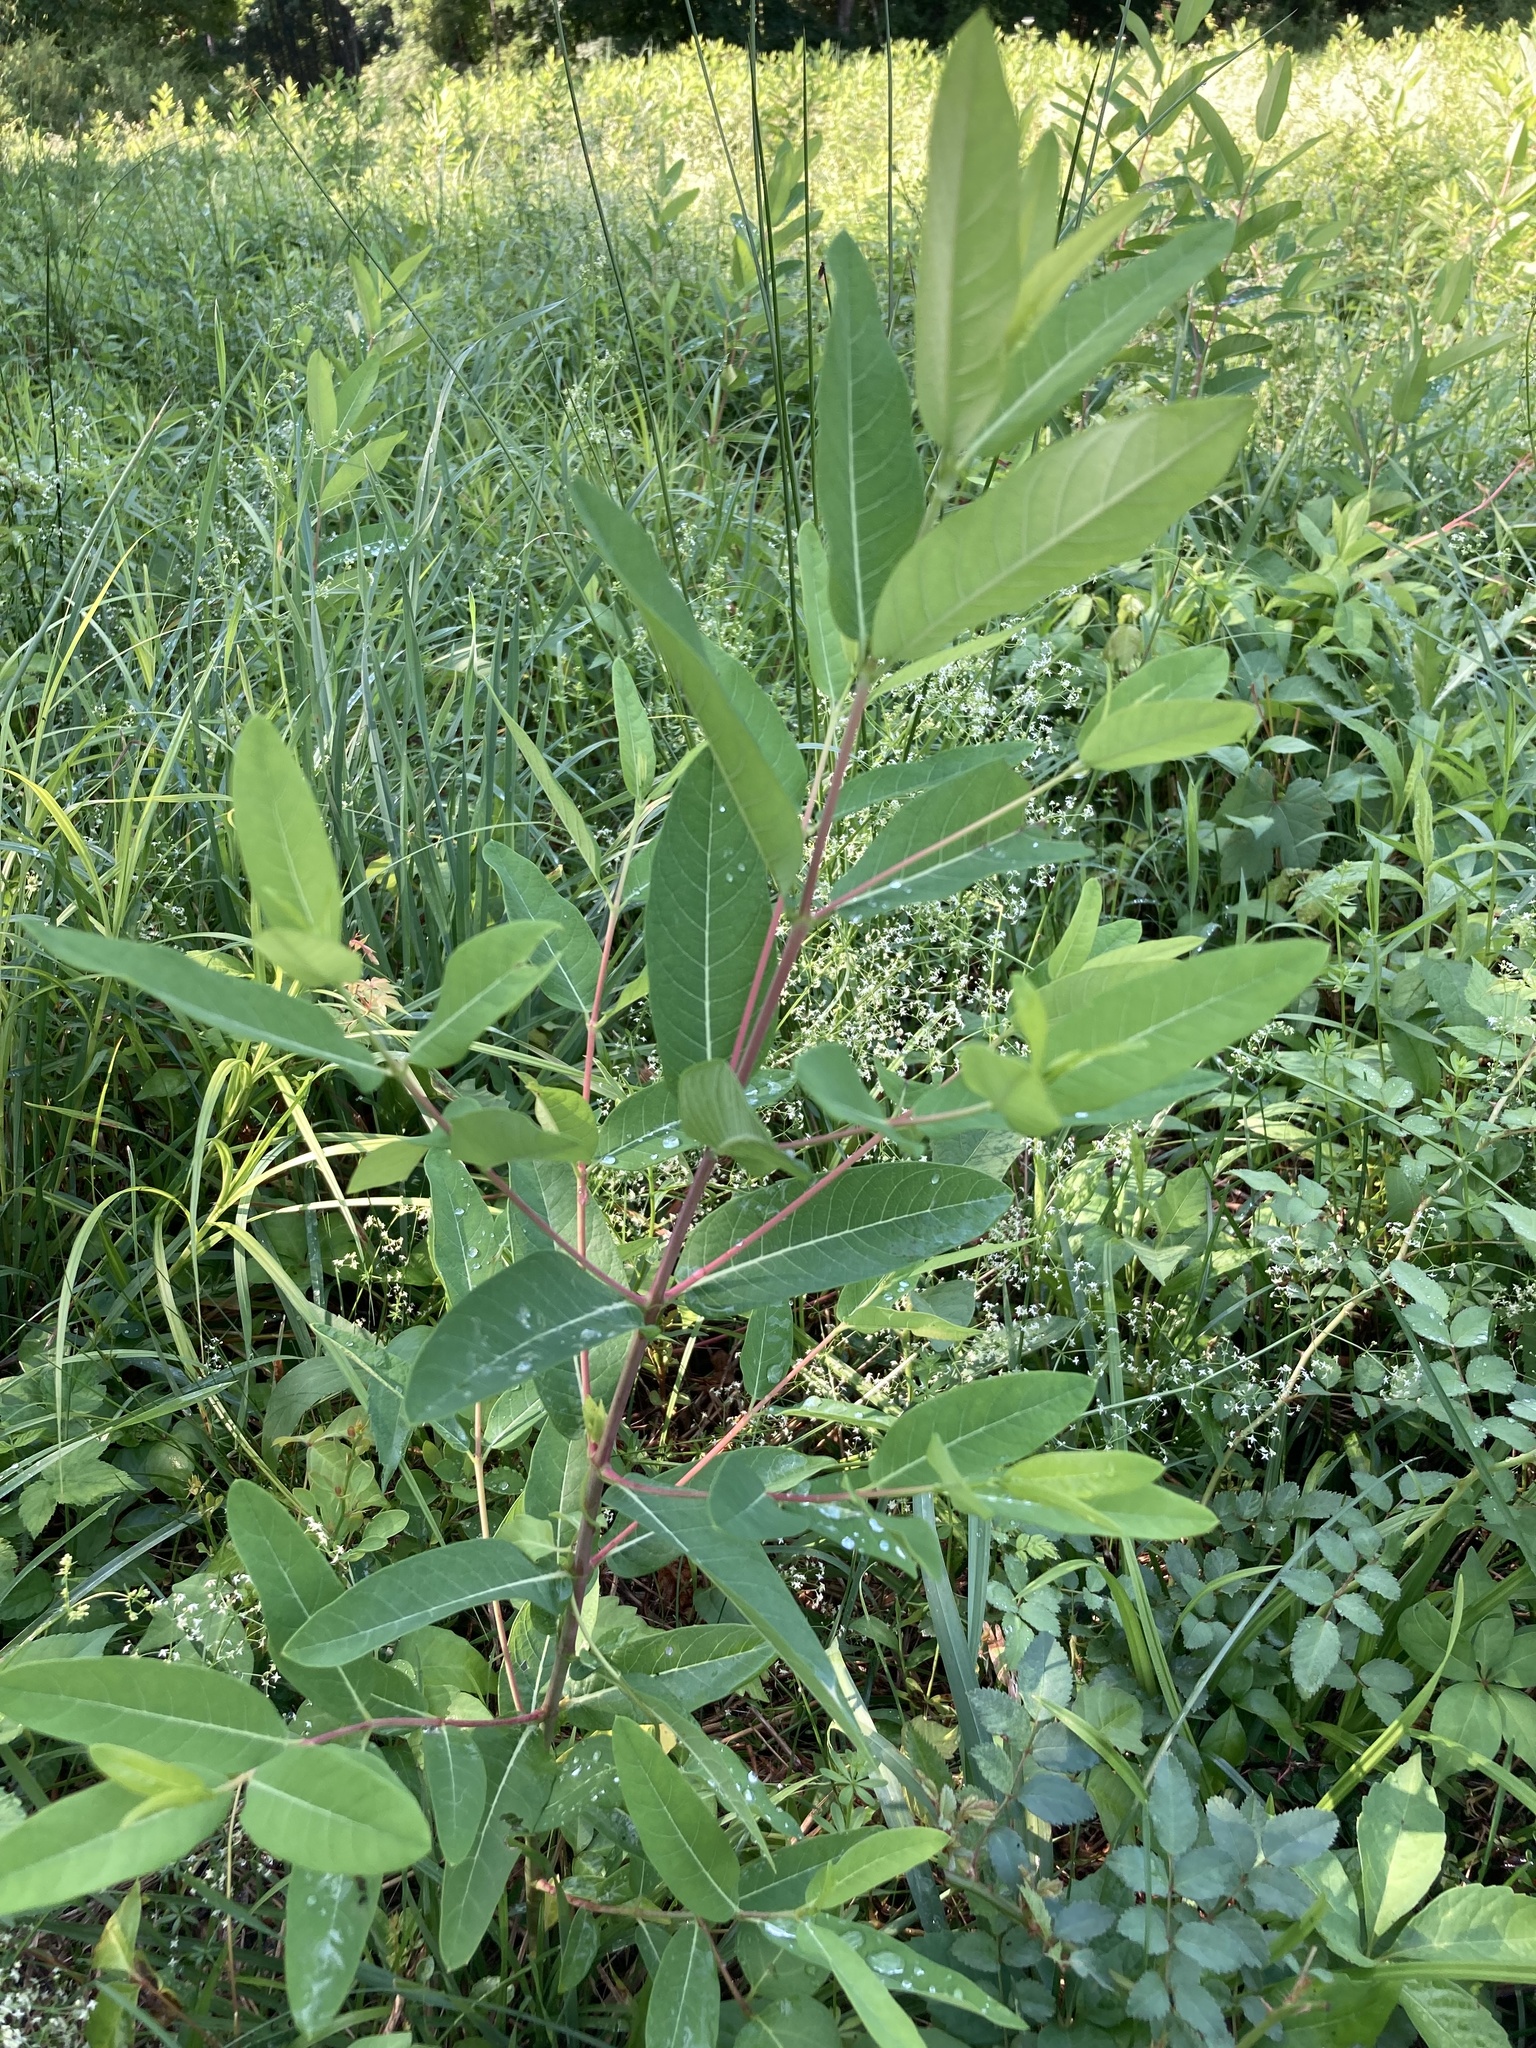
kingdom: Plantae
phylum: Tracheophyta
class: Magnoliopsida
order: Gentianales
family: Apocynaceae
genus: Apocynum
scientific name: Apocynum cannabinum
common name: Hemp dogbane
